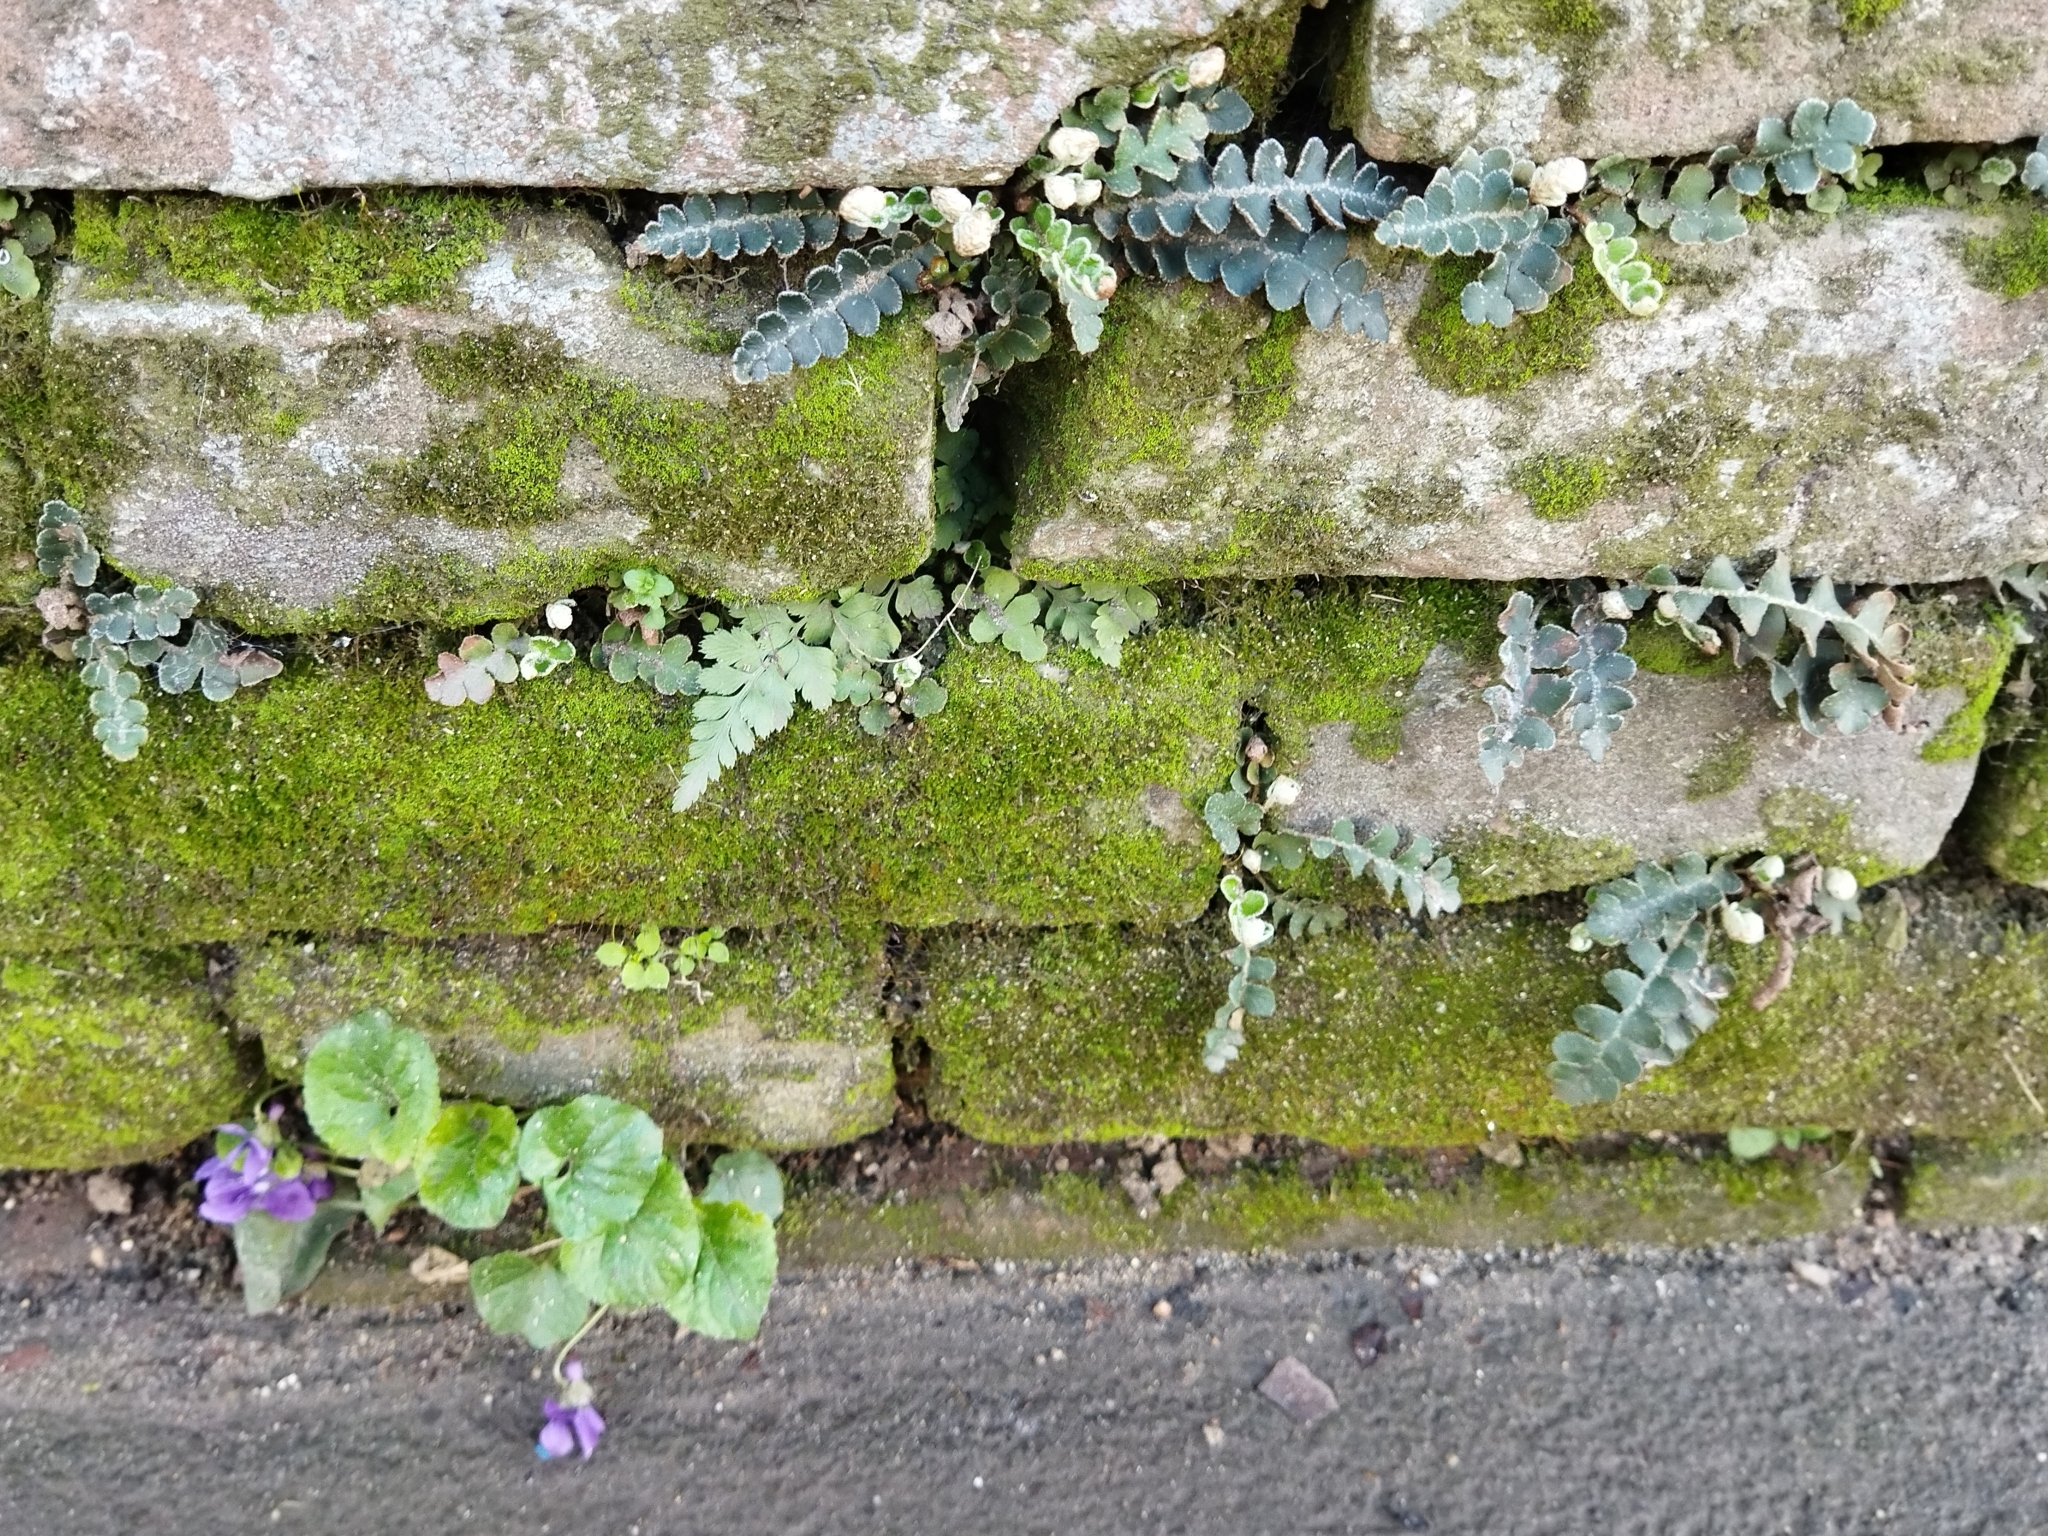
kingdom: Plantae
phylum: Tracheophyta
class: Polypodiopsida
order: Polypodiales
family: Aspleniaceae
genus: Asplenium
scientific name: Asplenium ceterach
